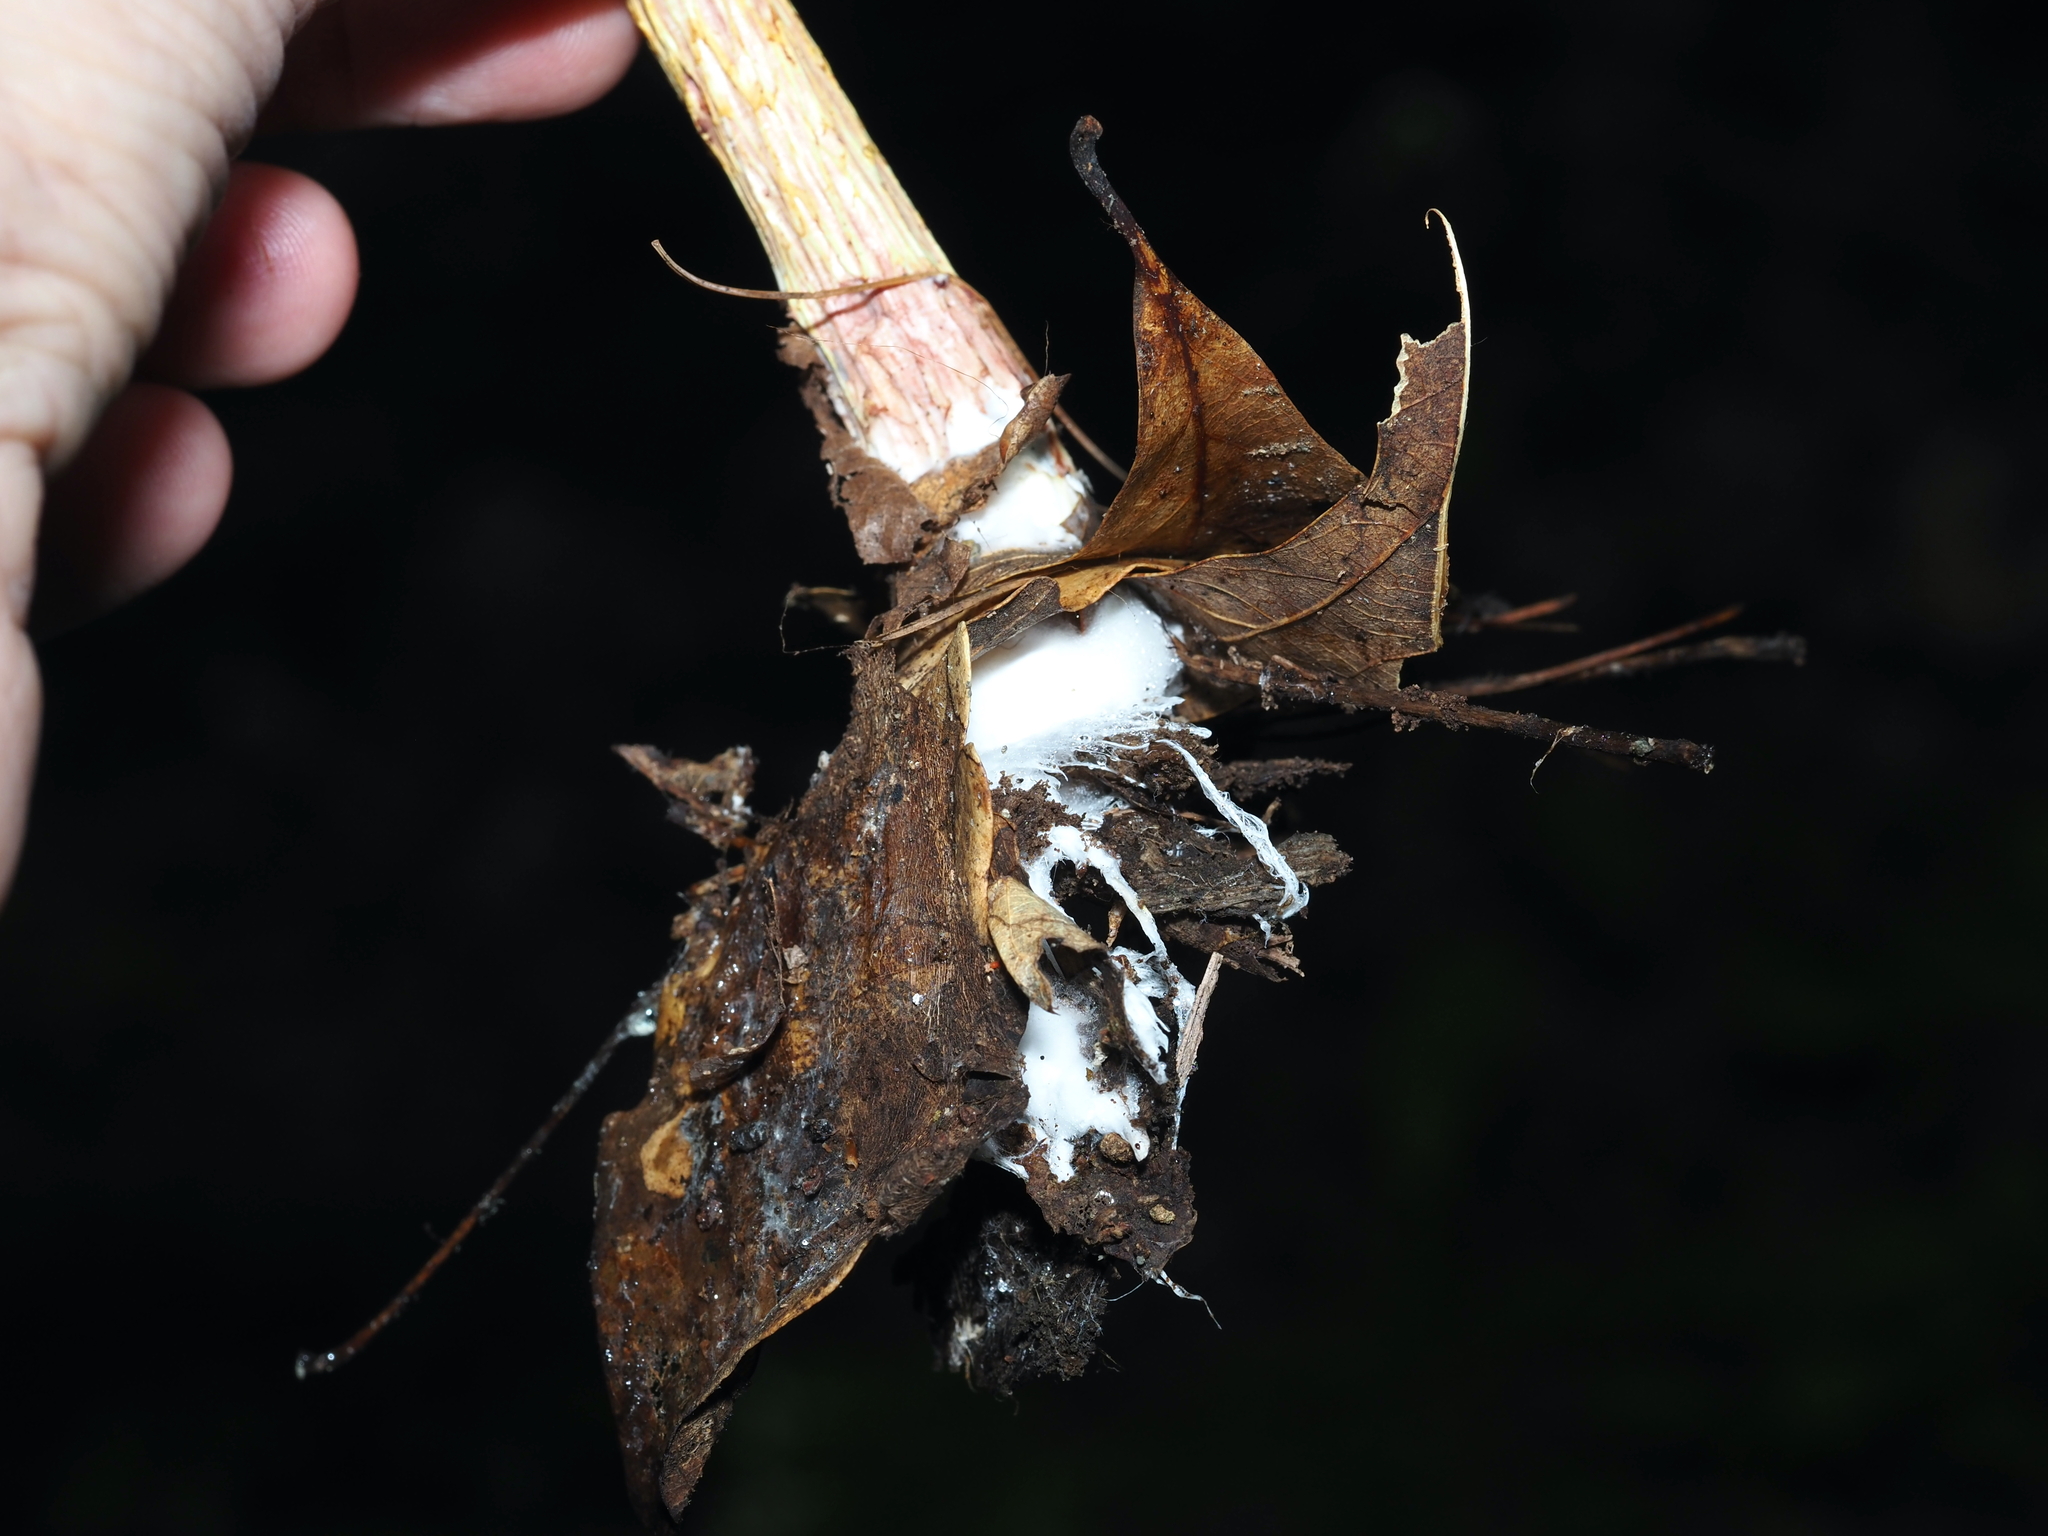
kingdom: Fungi
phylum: Basidiomycota
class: Agaricomycetes
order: Boletales
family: Boletaceae
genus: Aureoboletus
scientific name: Aureoboletus betula
